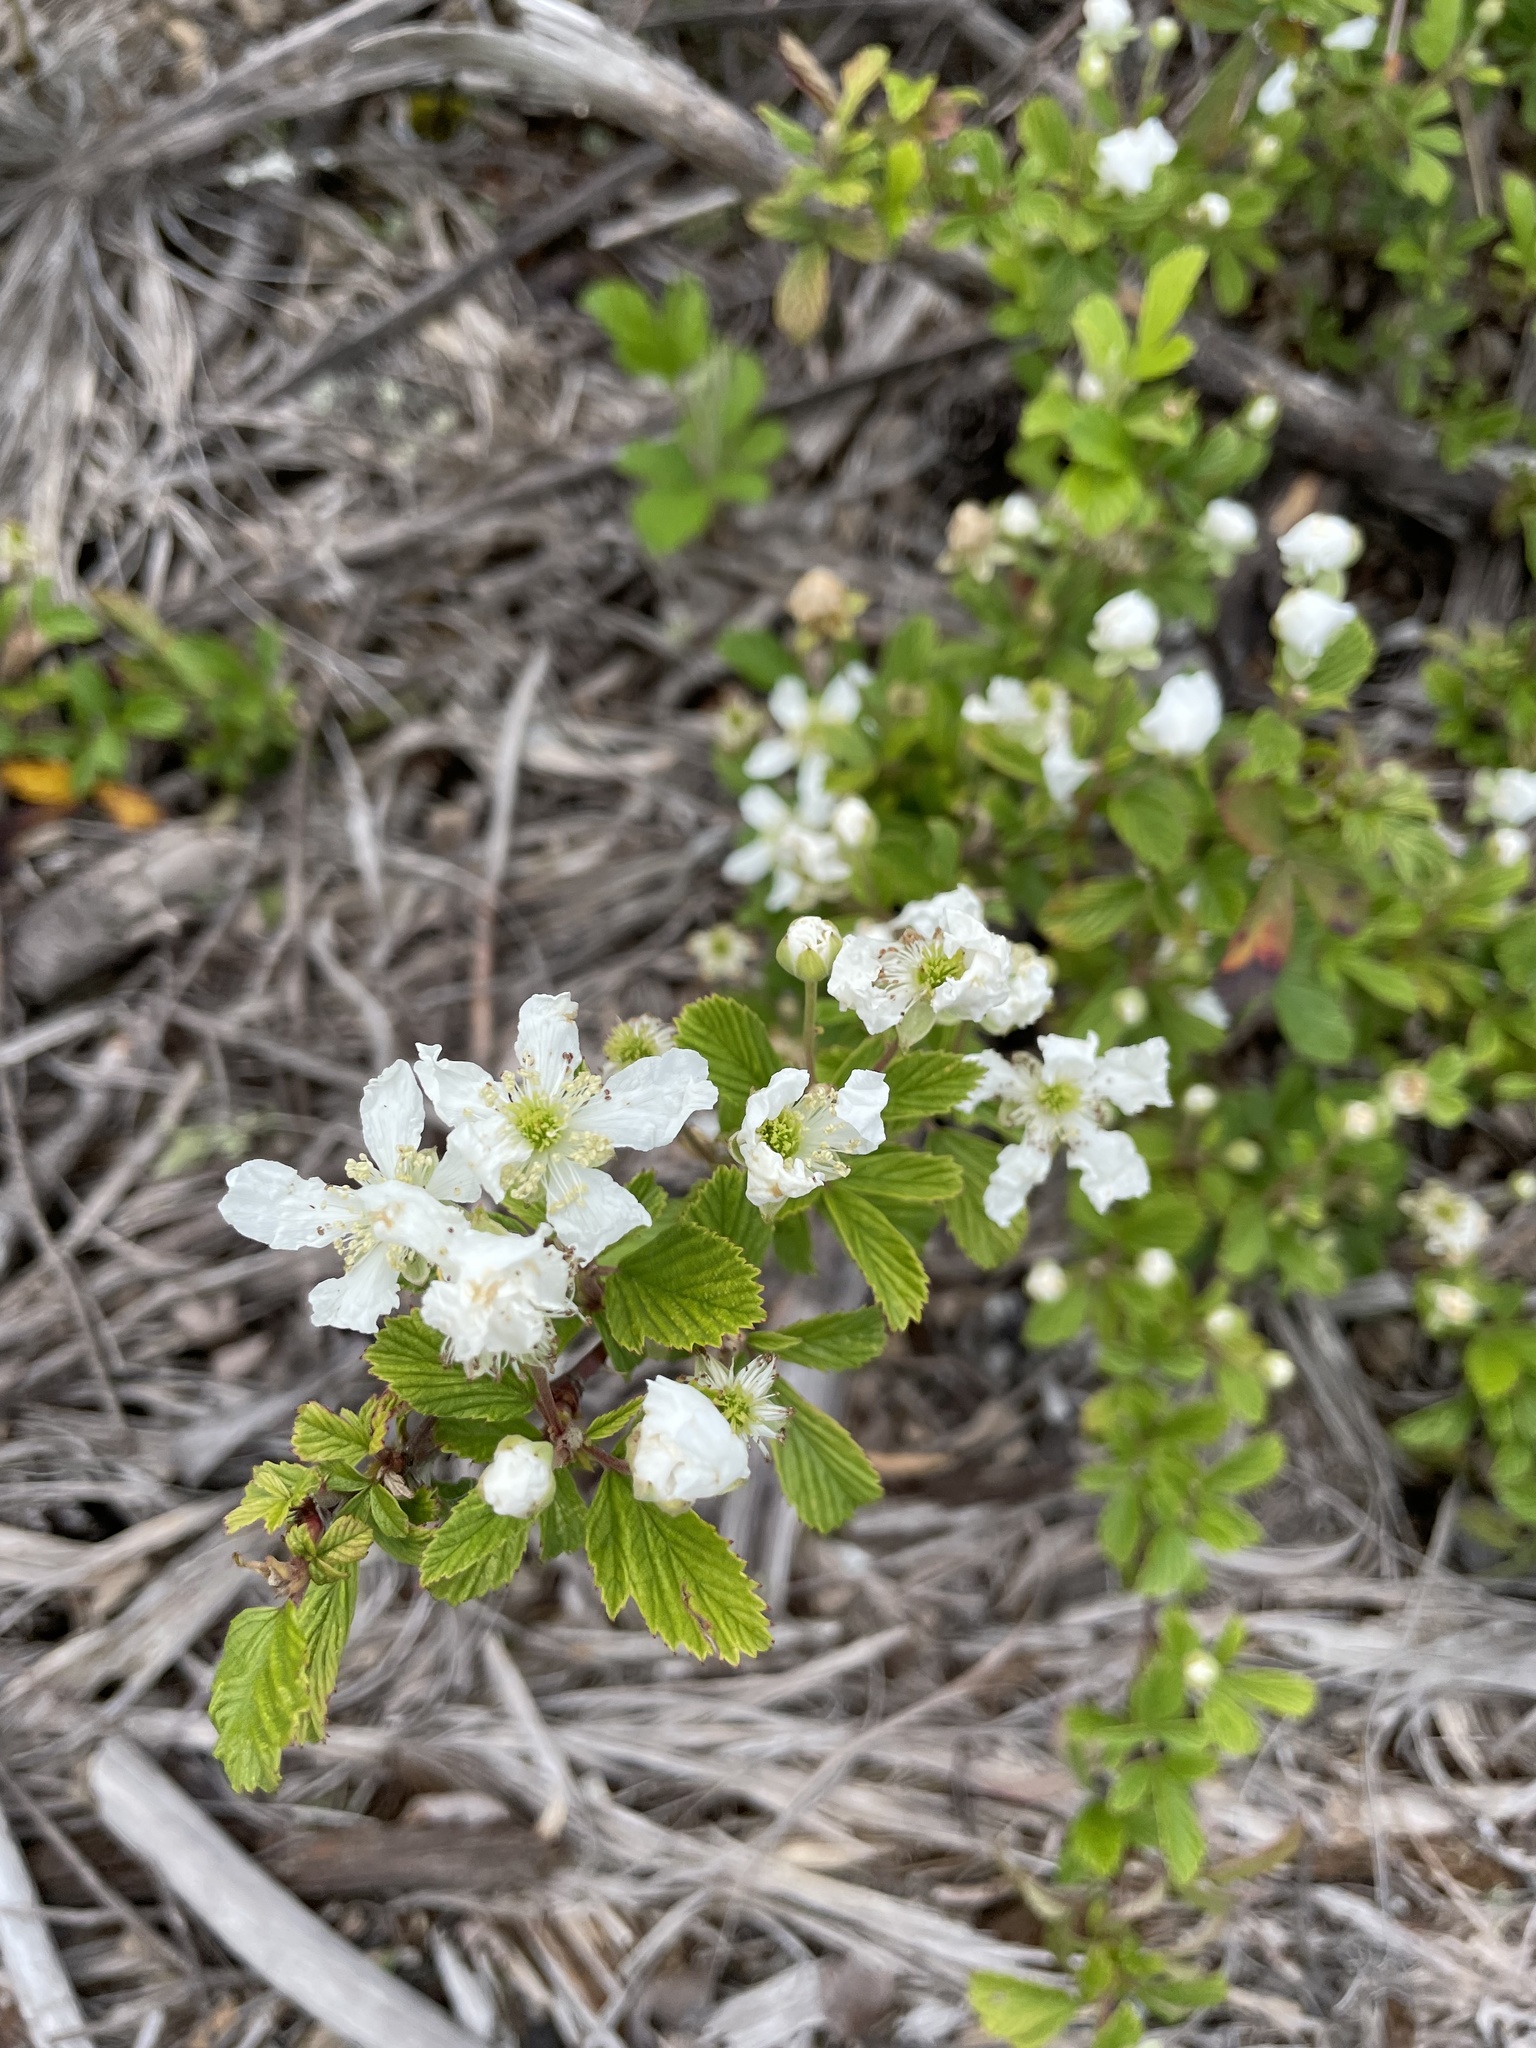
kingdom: Plantae
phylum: Tracheophyta
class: Magnoliopsida
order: Rosales
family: Rosaceae
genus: Rubus
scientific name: Rubus cuneifolius
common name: American bramble
